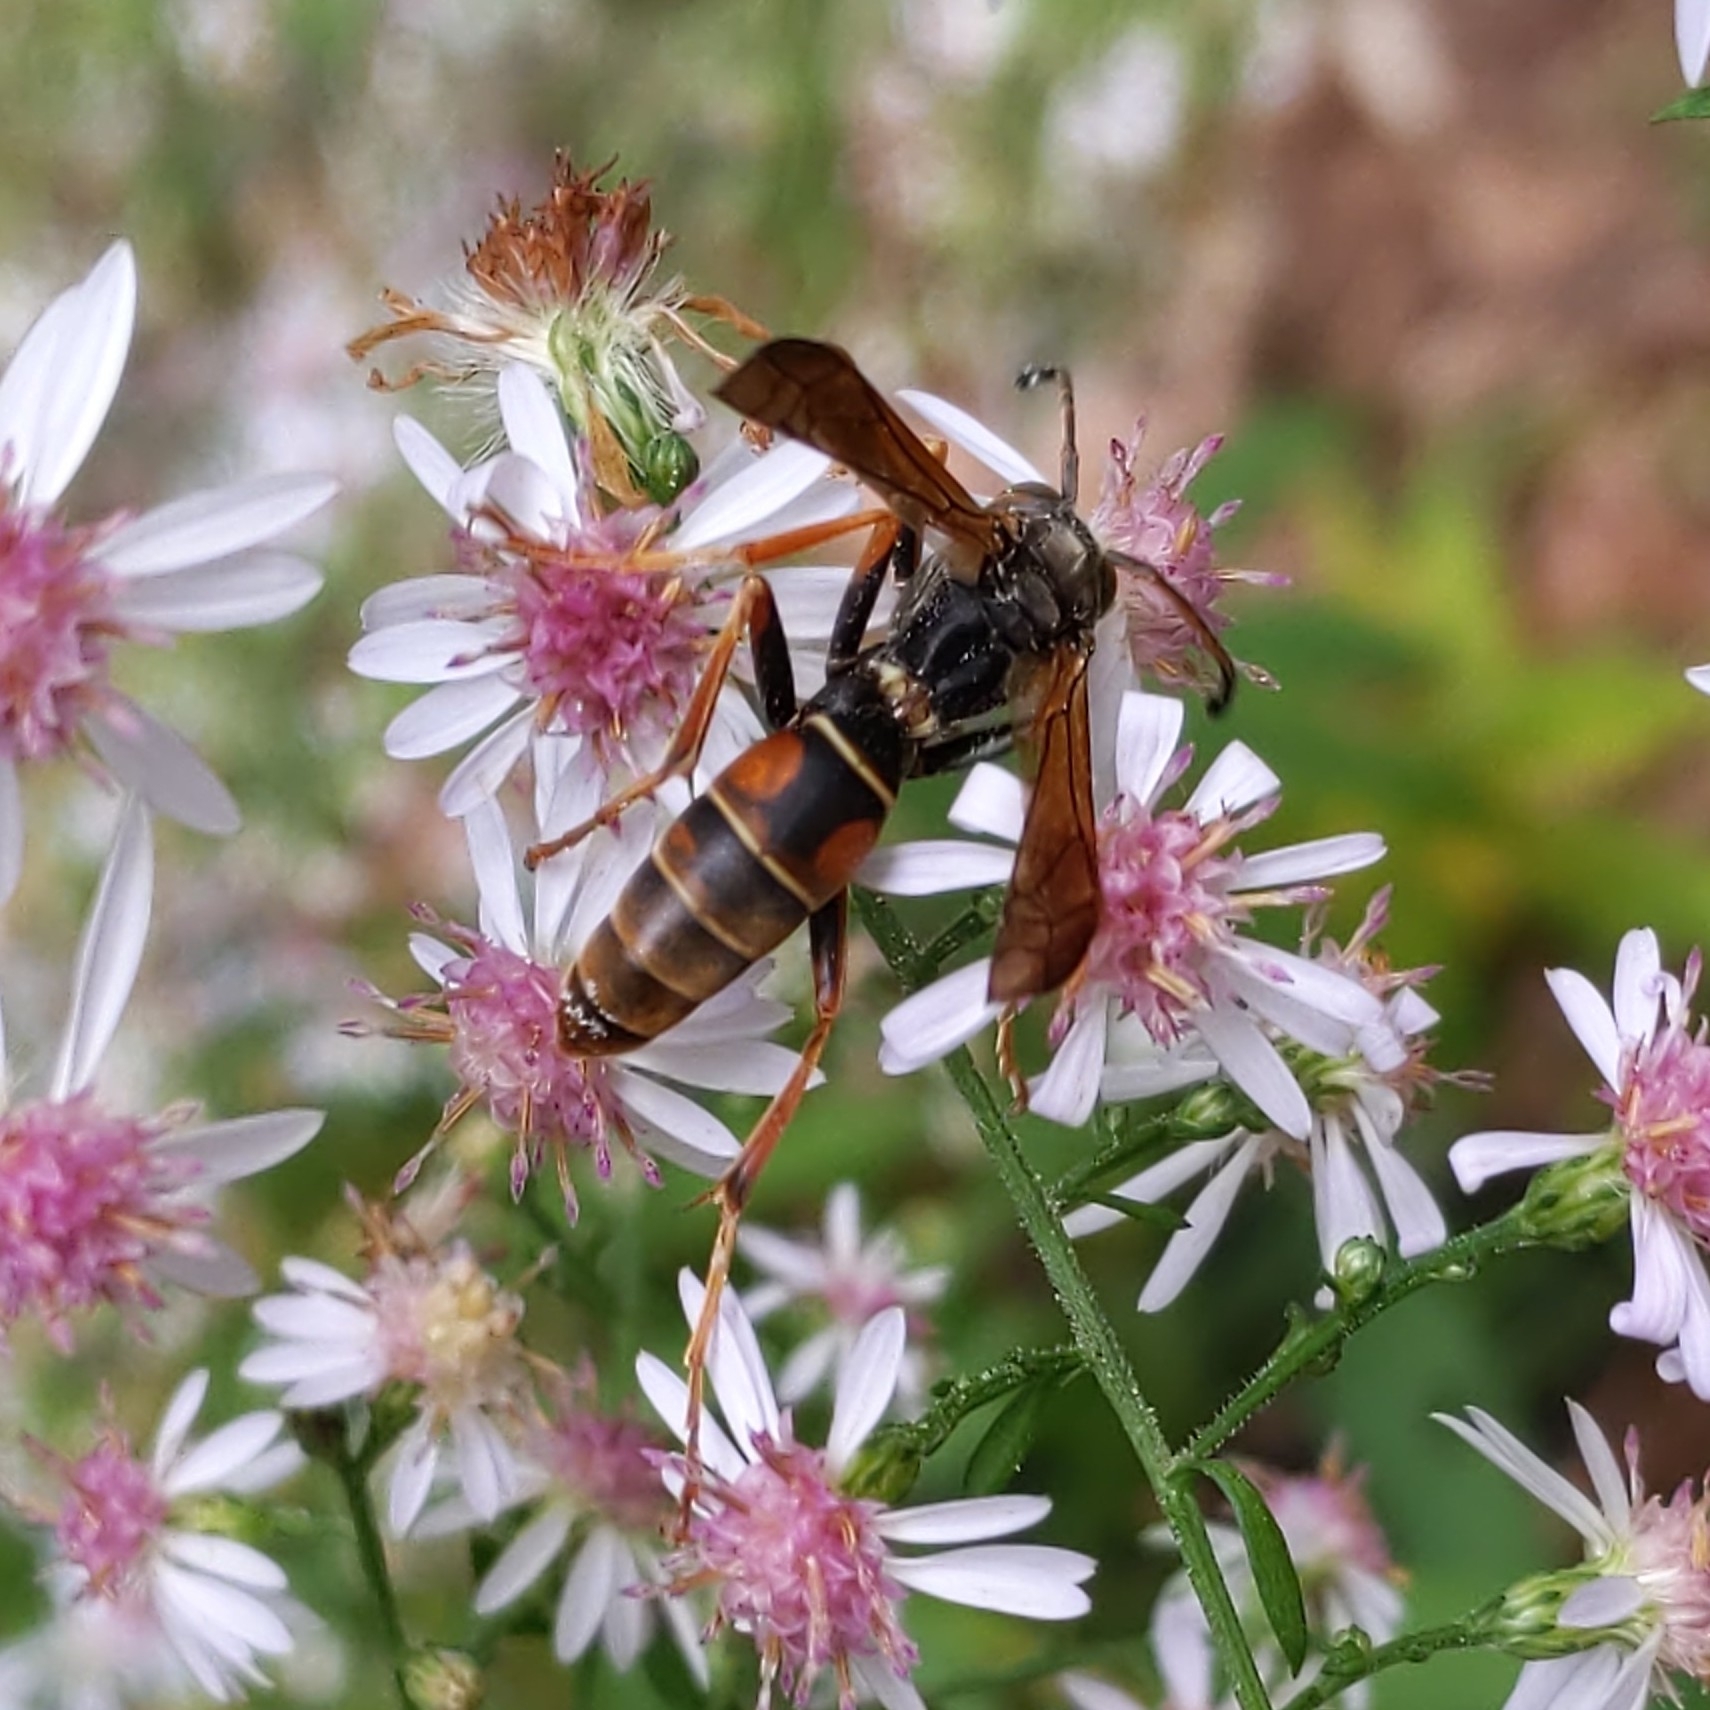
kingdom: Animalia
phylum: Arthropoda
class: Insecta
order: Hymenoptera
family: Eumenidae
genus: Polistes
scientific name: Polistes fuscatus
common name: Dark paper wasp
